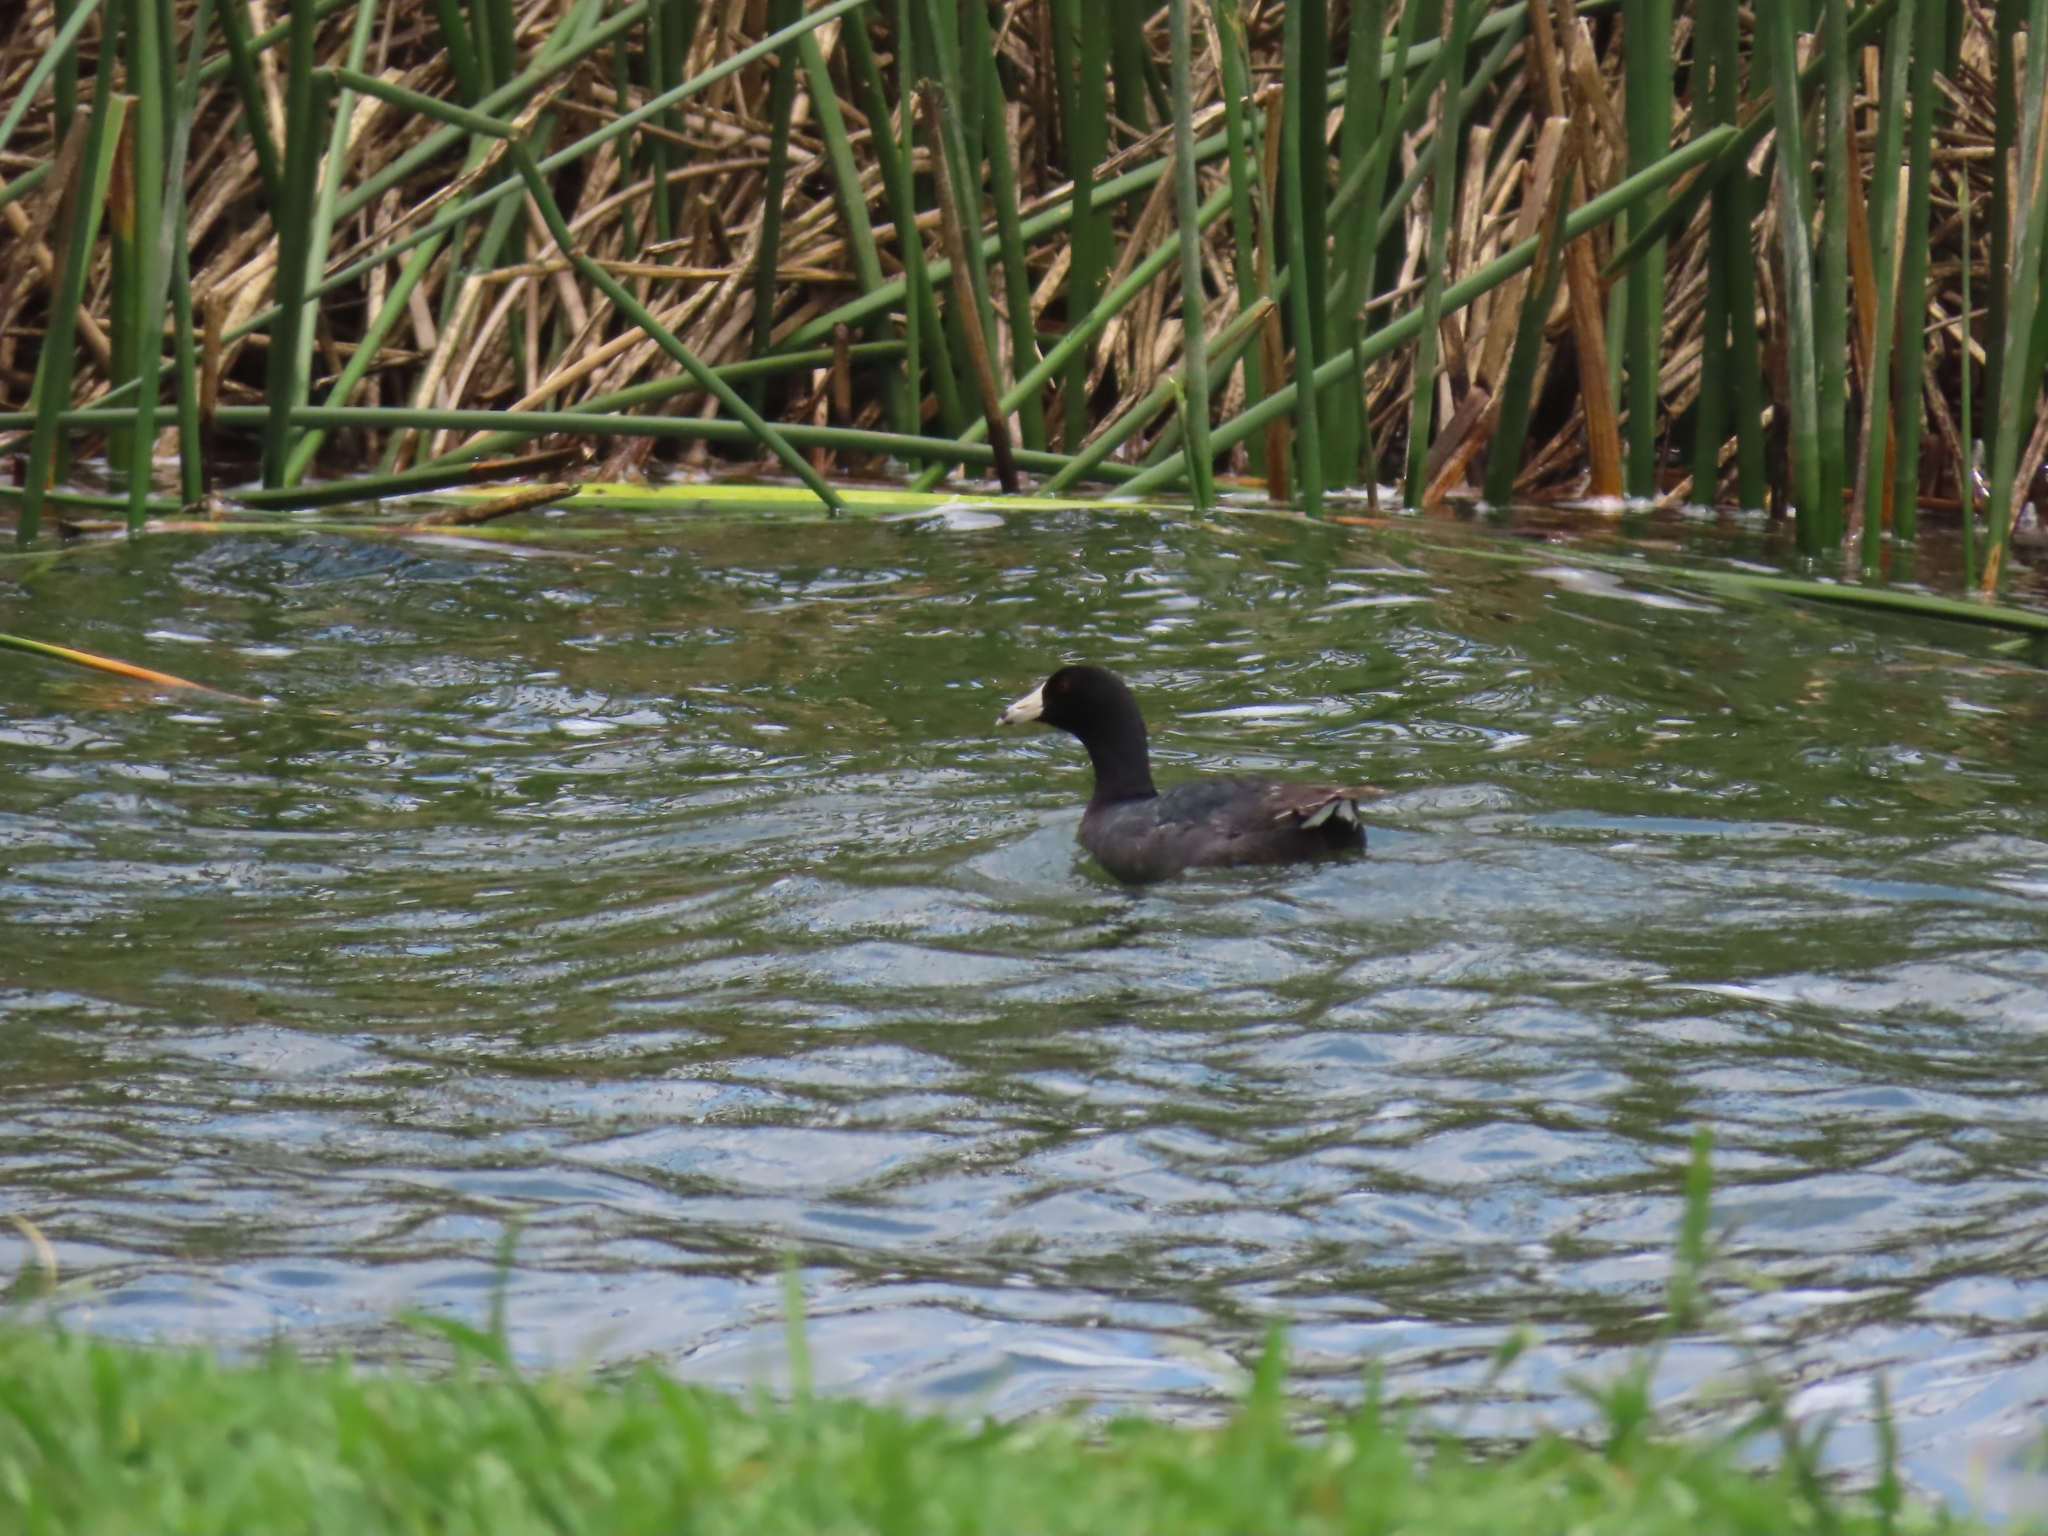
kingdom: Animalia
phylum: Chordata
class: Aves
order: Gruiformes
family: Rallidae
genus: Fulica
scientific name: Fulica americana
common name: American coot
